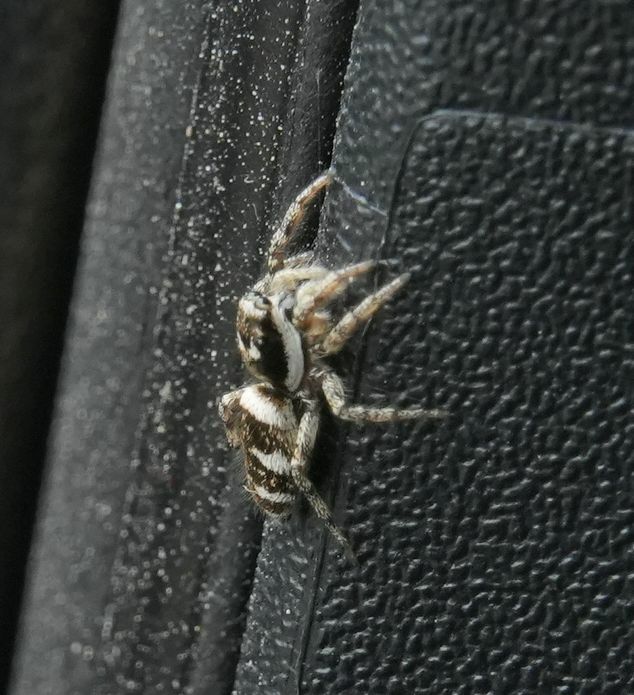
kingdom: Animalia
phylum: Arthropoda
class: Arachnida
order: Araneae
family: Salticidae
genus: Salticus
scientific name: Salticus scenicus
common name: Zebra jumper
